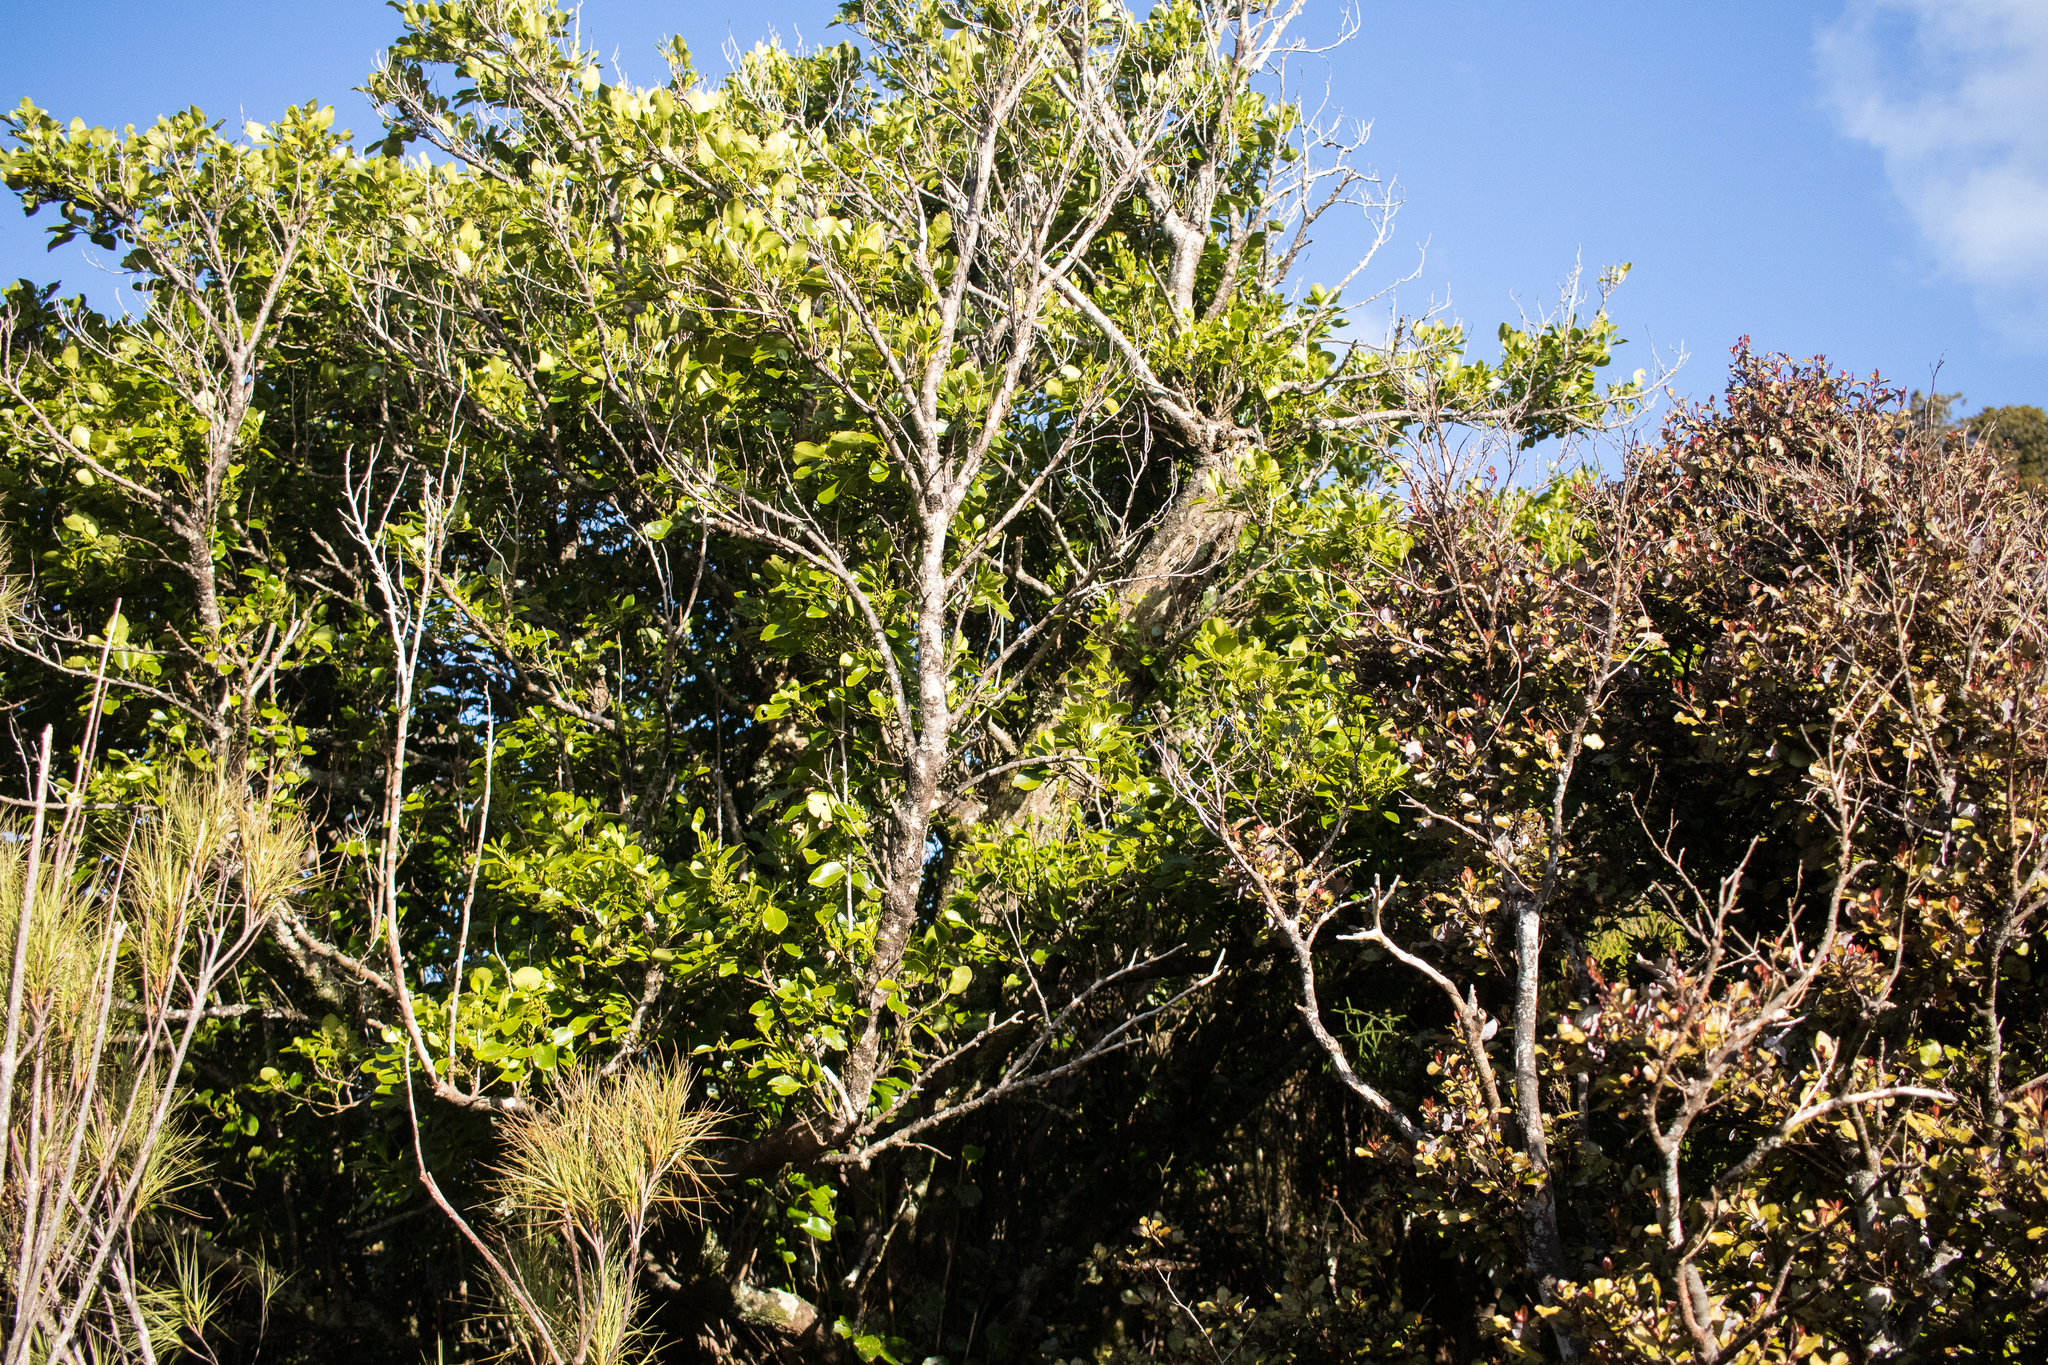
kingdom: Plantae
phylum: Tracheophyta
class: Magnoliopsida
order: Apiales
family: Griseliniaceae
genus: Griselinia
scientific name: Griselinia littoralis
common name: New zealand broadleaf
